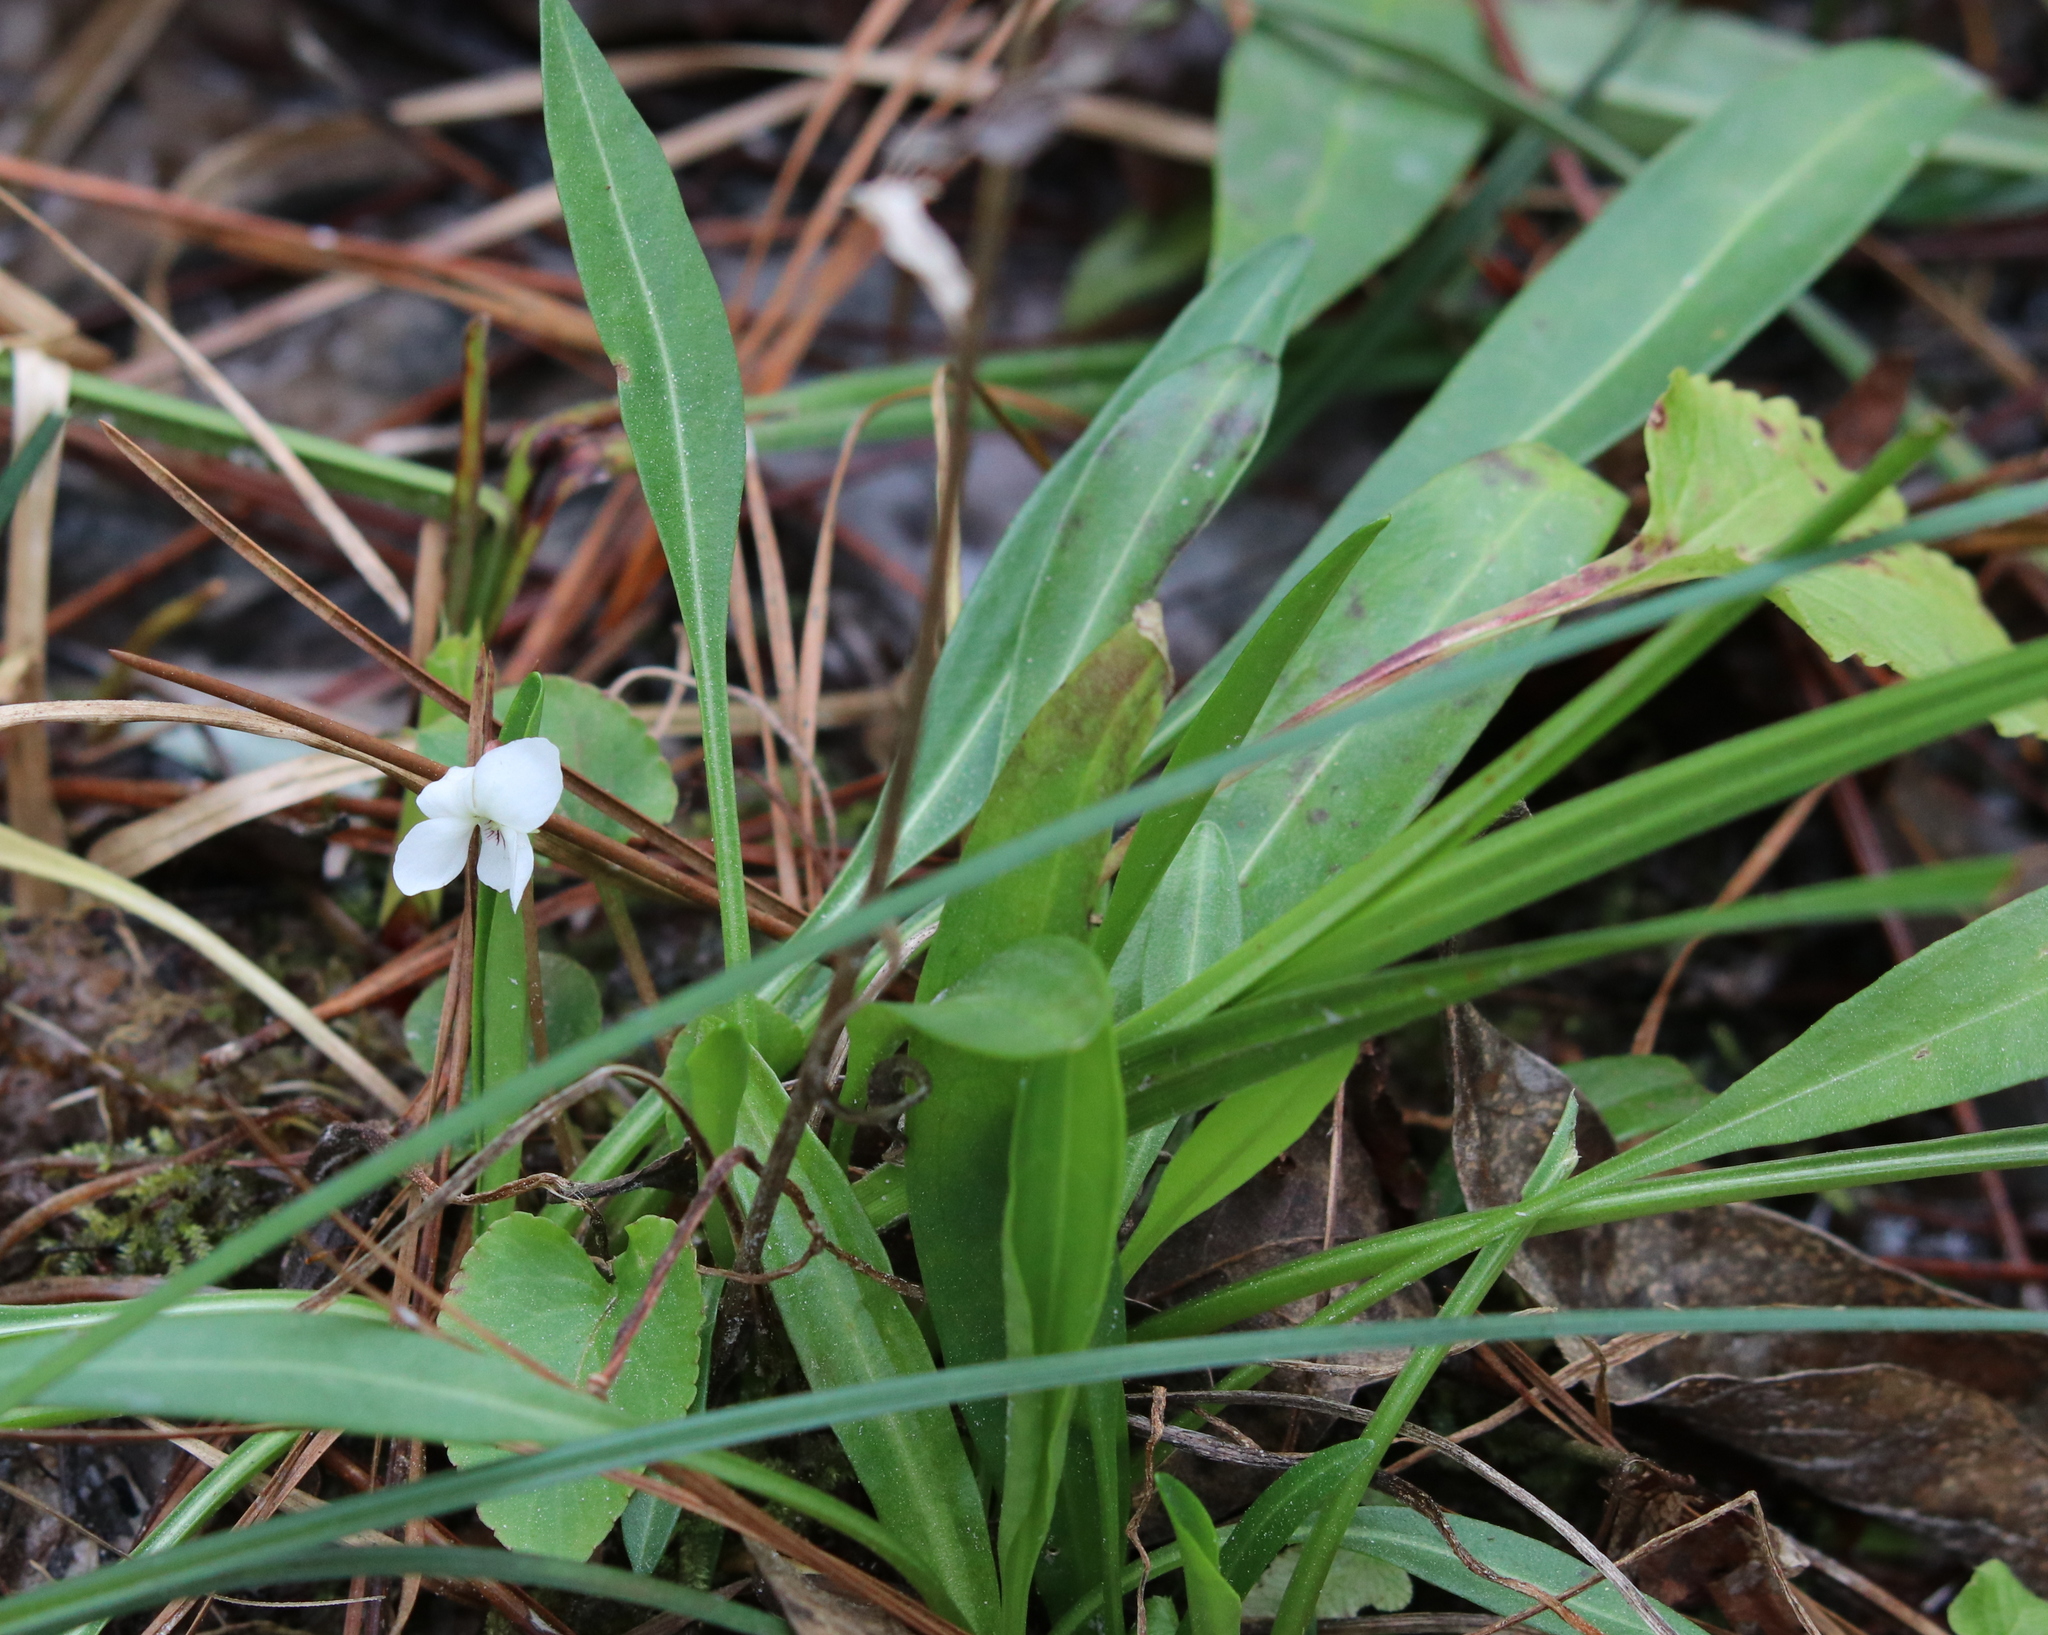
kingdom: Plantae
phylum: Tracheophyta
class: Magnoliopsida
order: Malpighiales
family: Violaceae
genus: Viola
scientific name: Viola lanceolata
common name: Bog white violet
